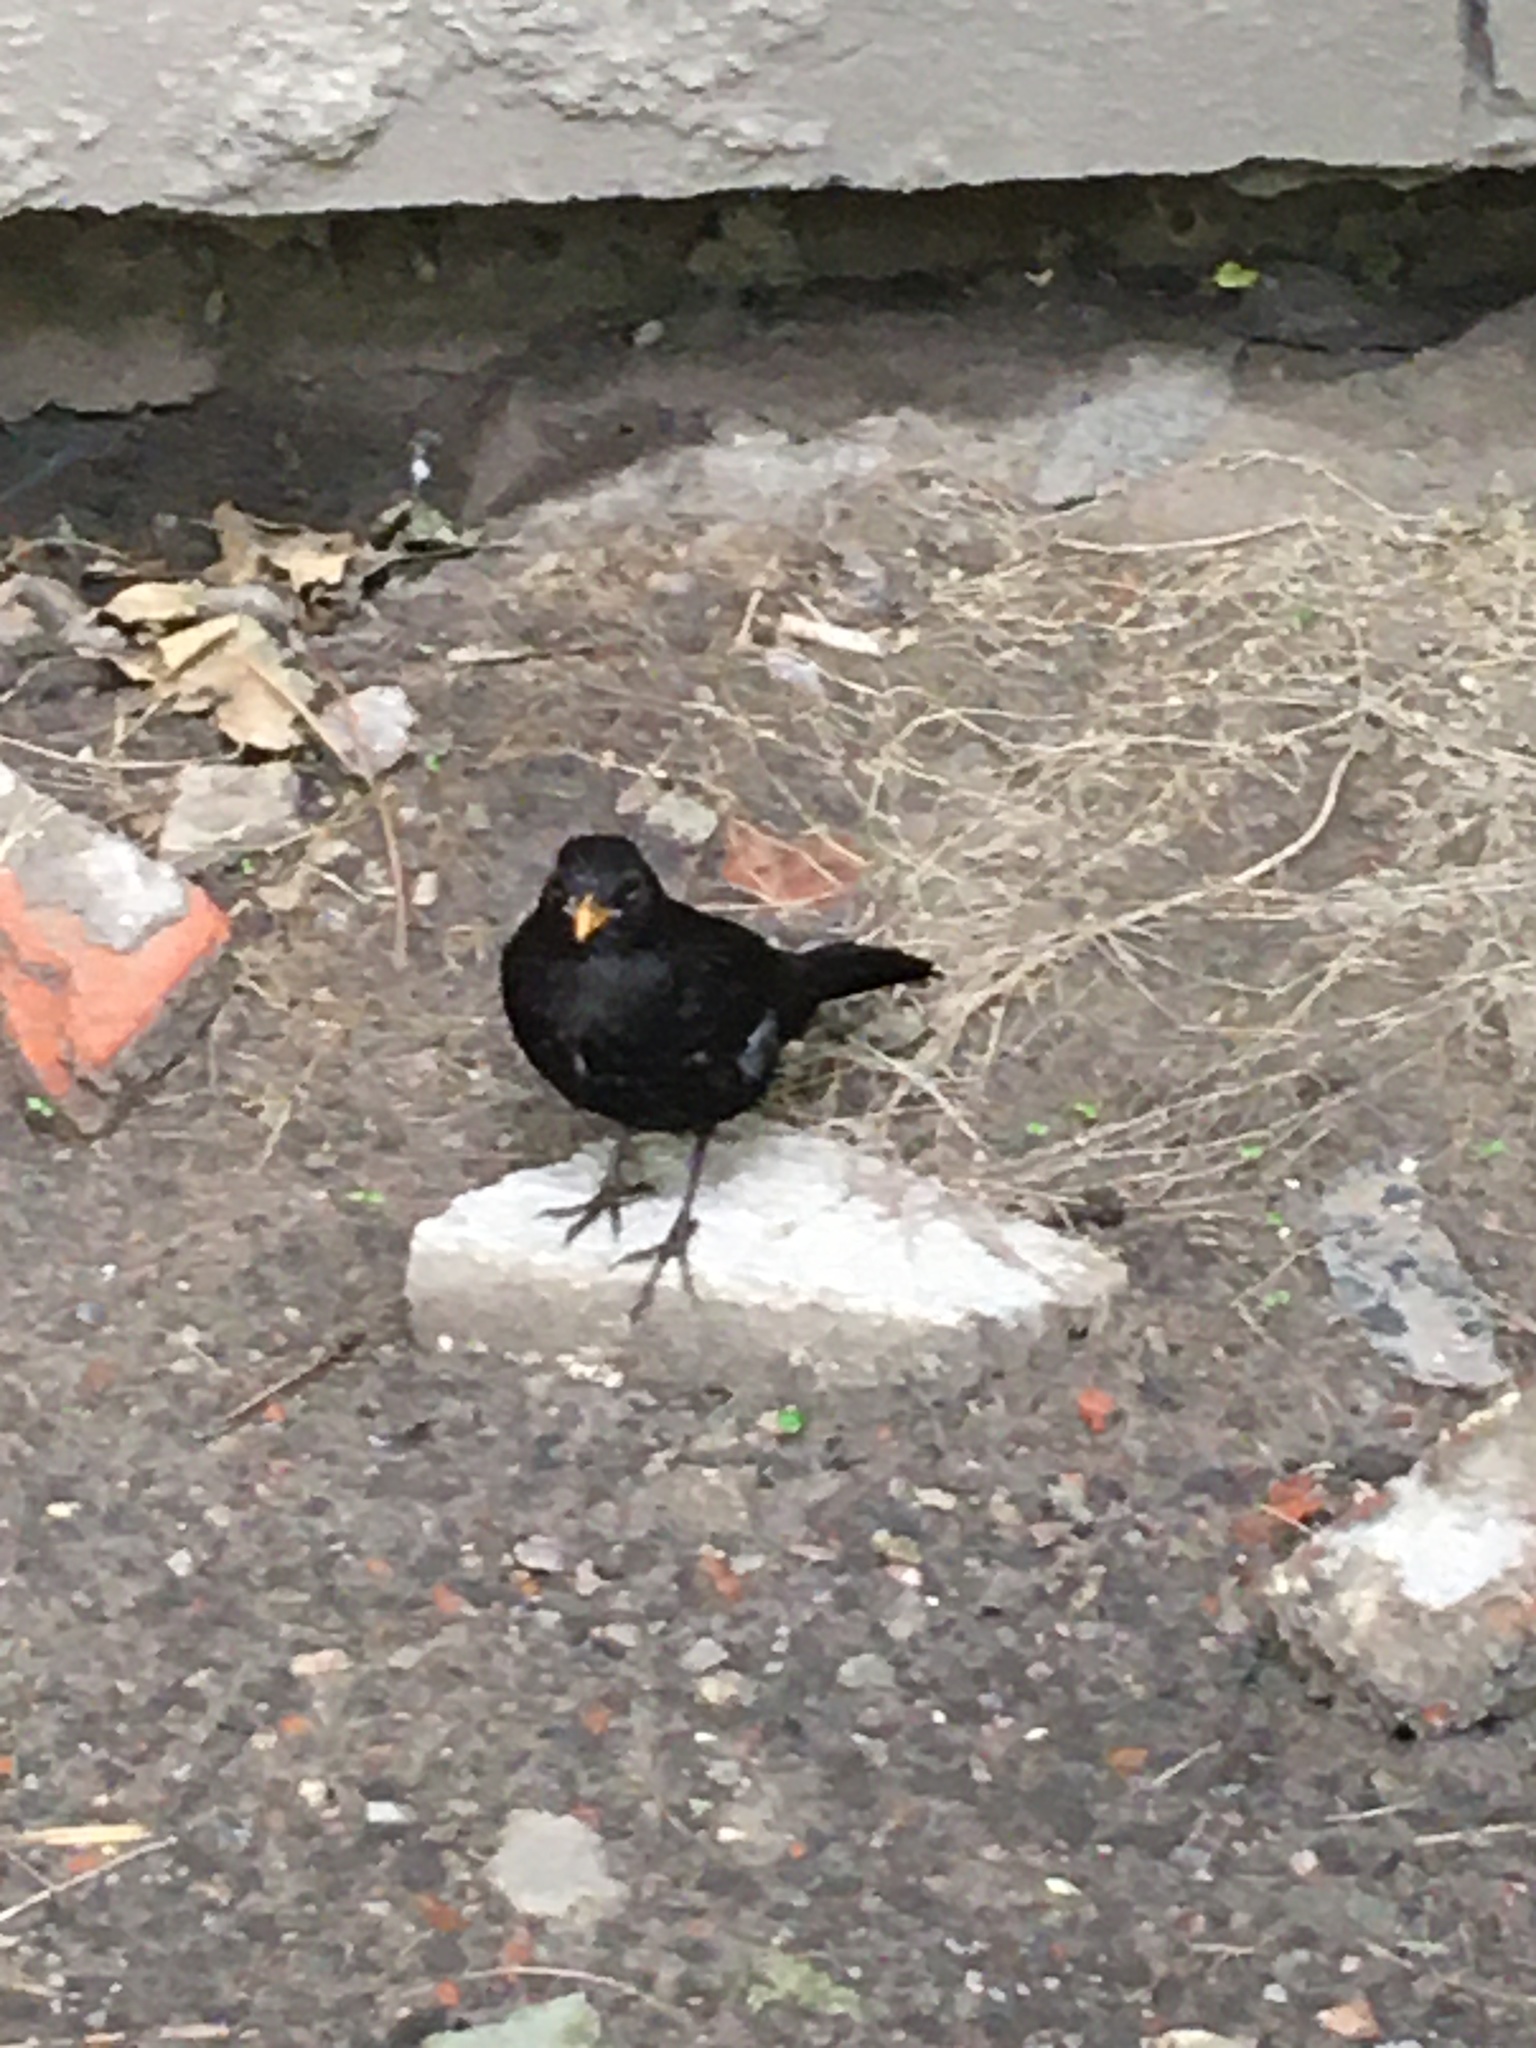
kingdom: Animalia
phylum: Chordata
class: Aves
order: Passeriformes
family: Turdidae
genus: Turdus
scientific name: Turdus merula
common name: Common blackbird
